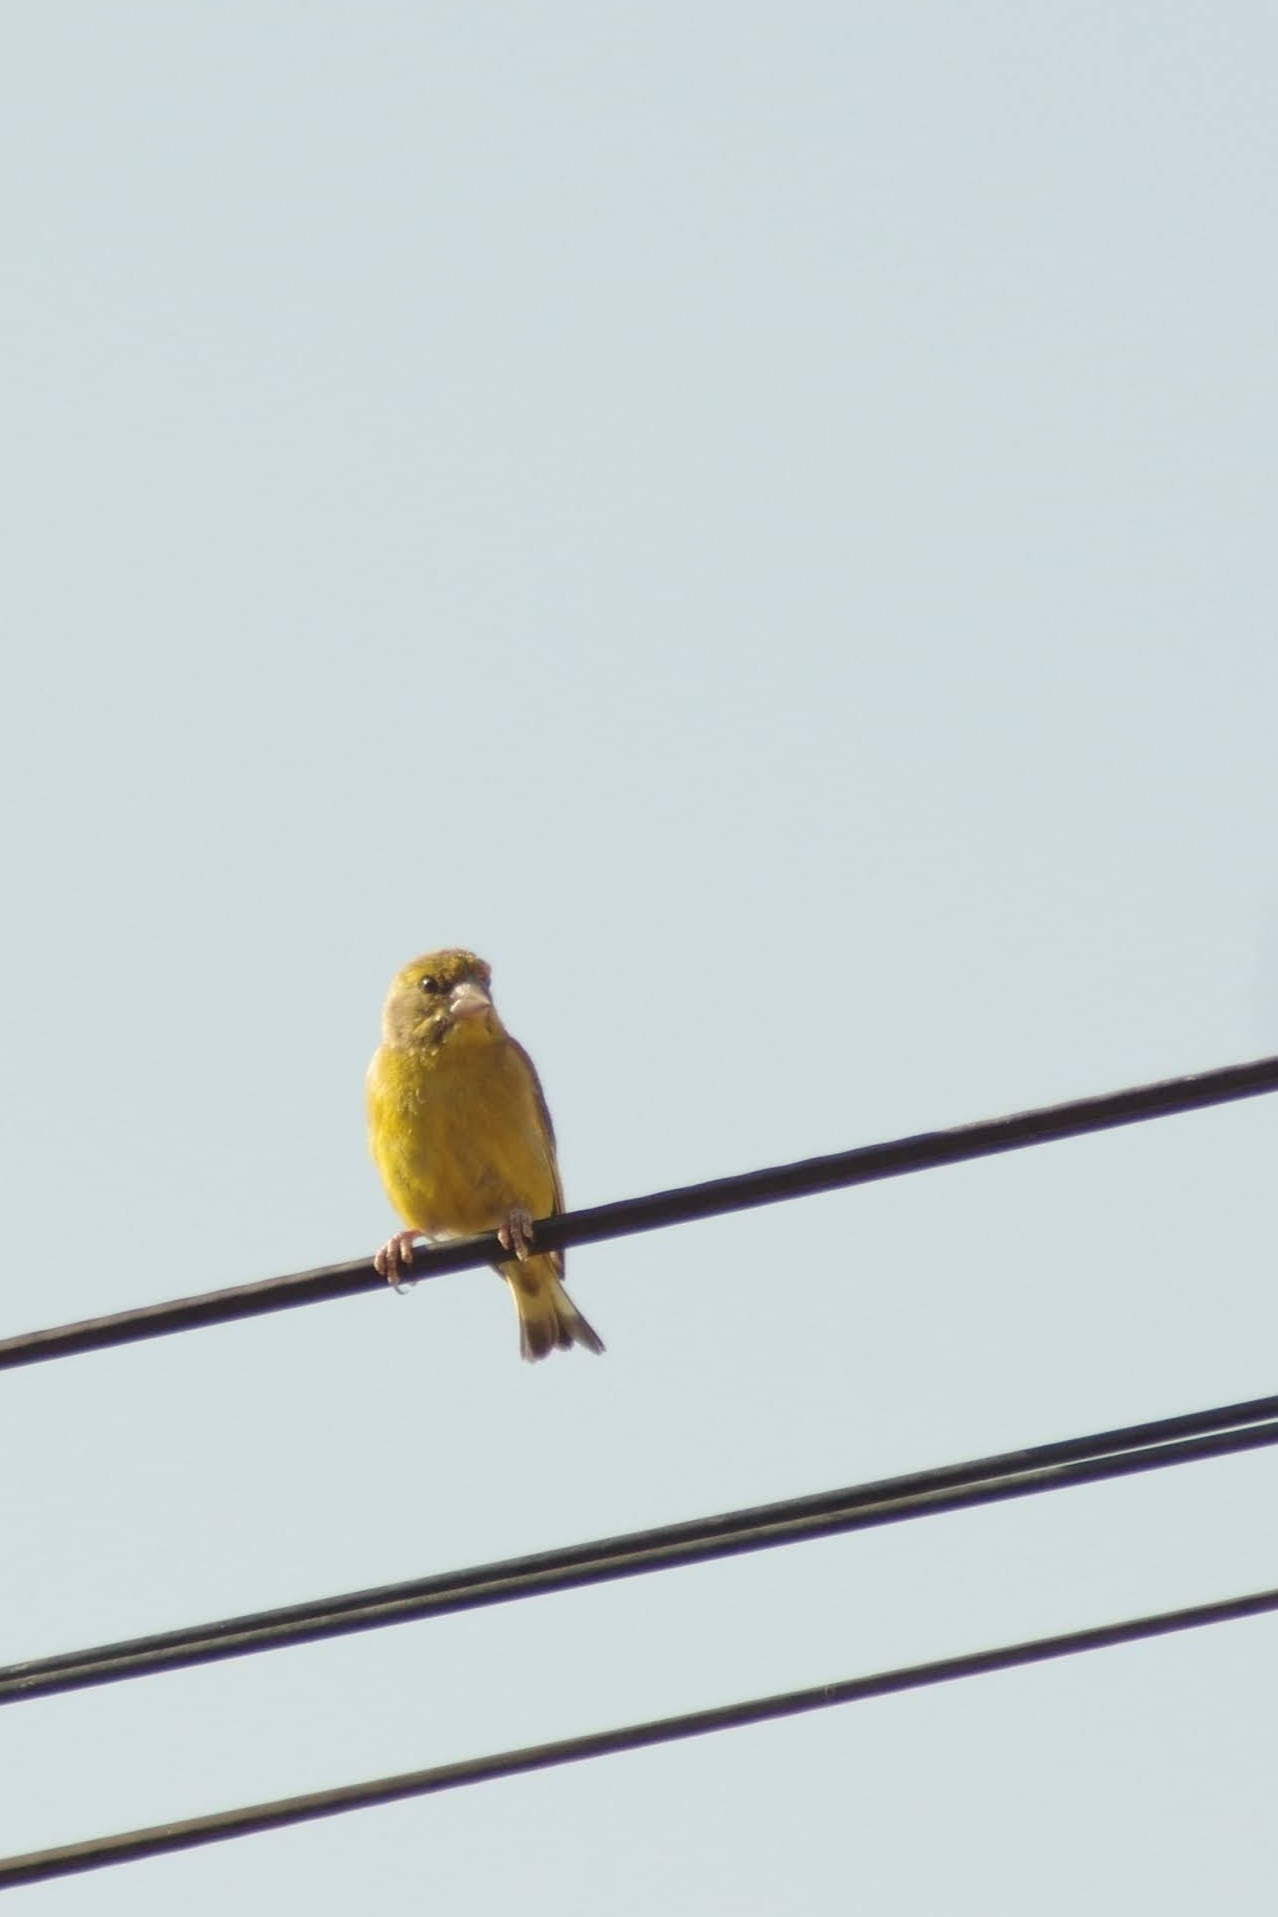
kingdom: Plantae
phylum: Tracheophyta
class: Liliopsida
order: Poales
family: Poaceae
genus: Chloris
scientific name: Chloris chloris
